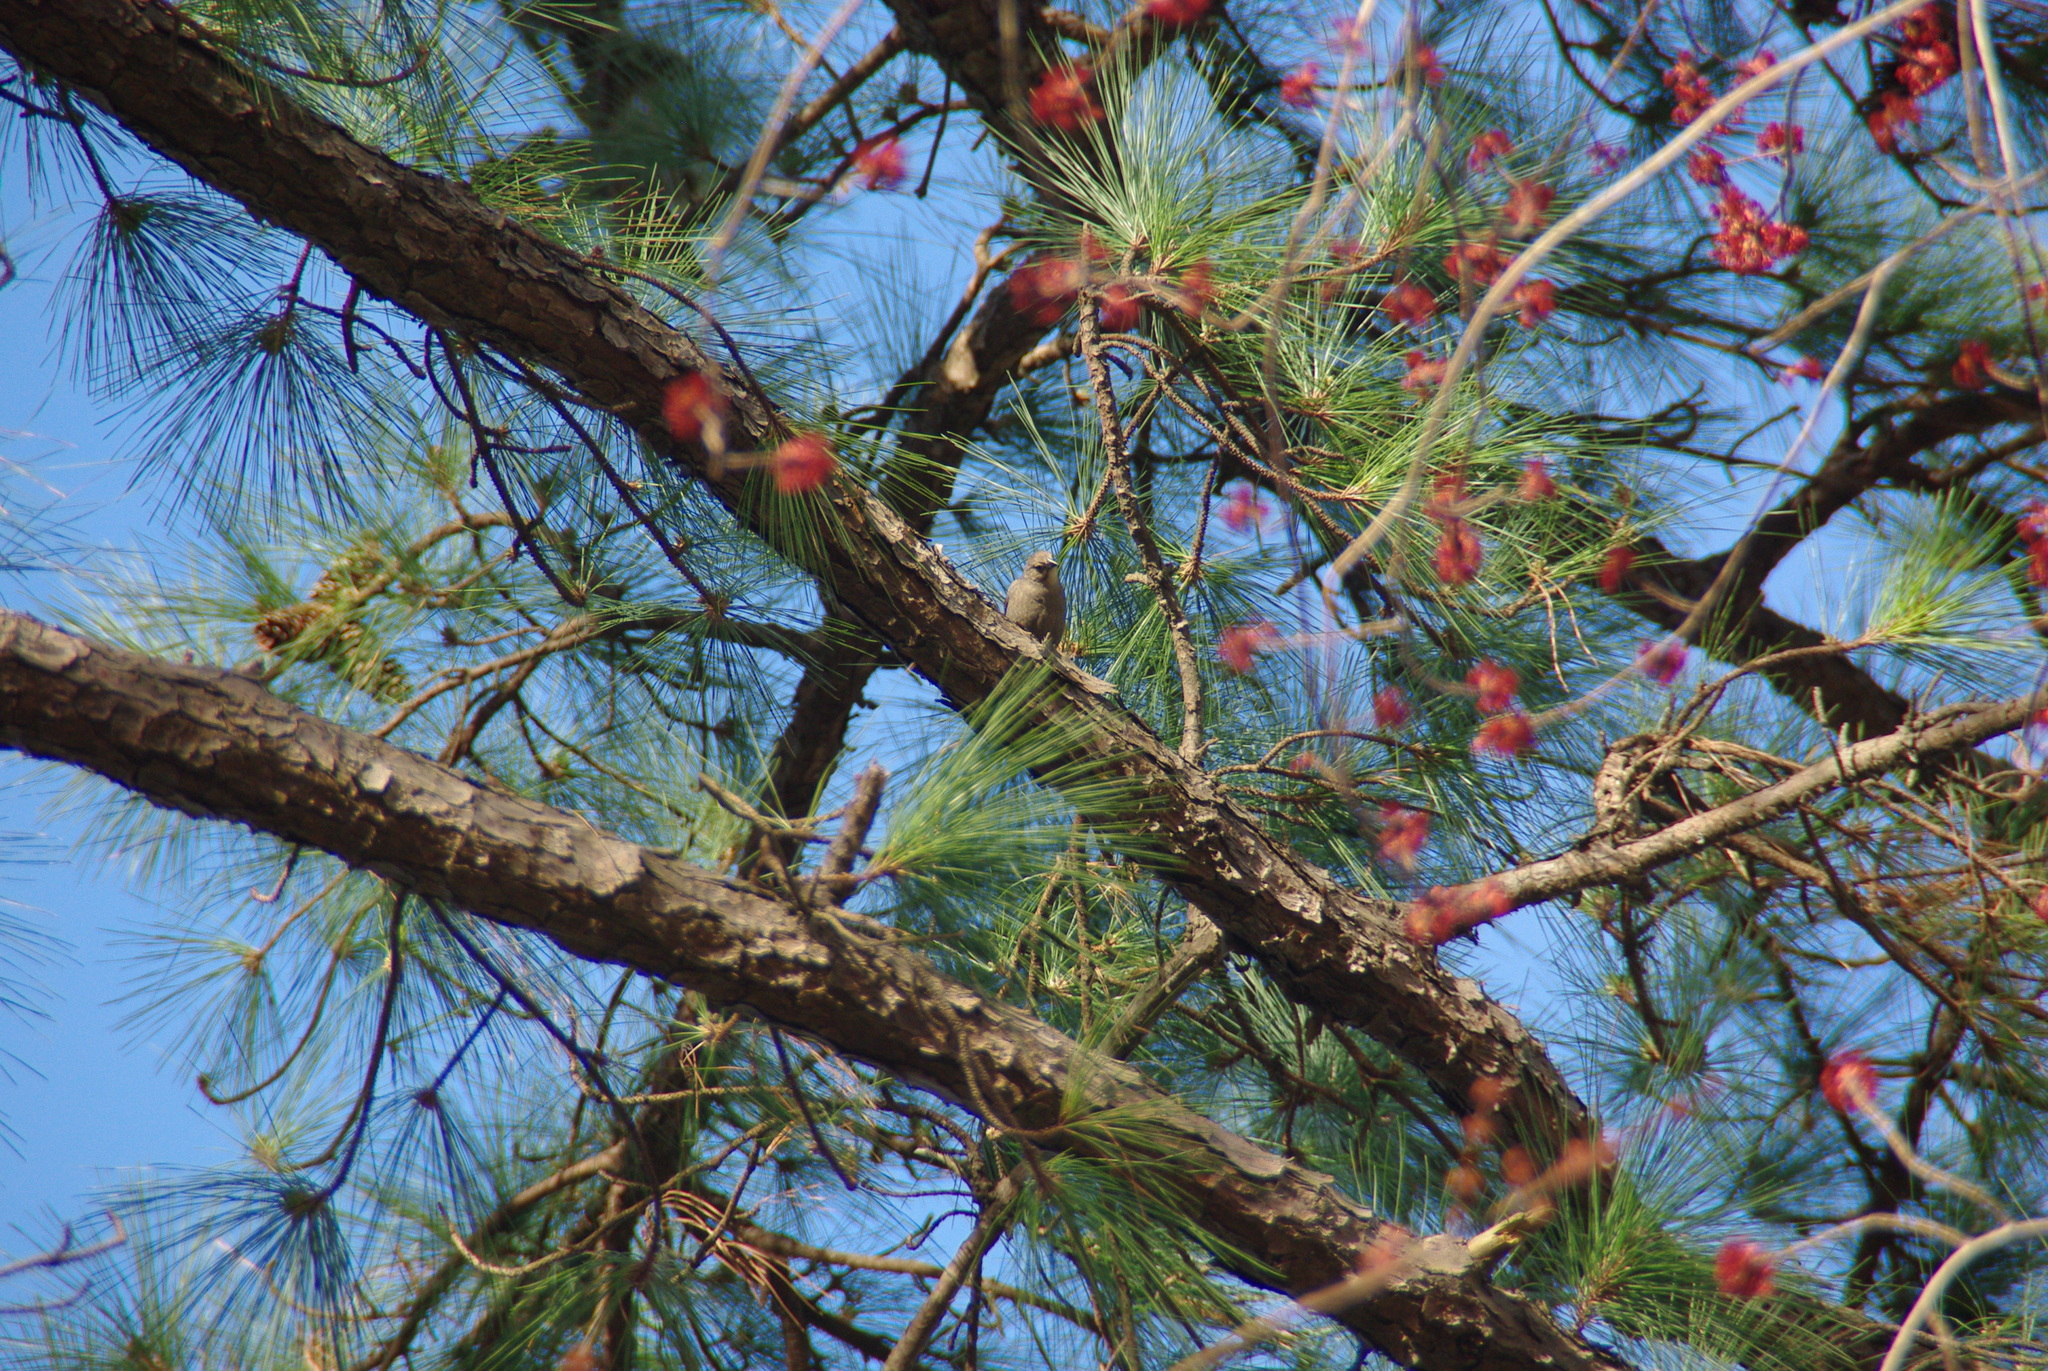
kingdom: Animalia
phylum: Chordata
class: Aves
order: Passeriformes
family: Icteridae
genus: Molothrus
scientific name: Molothrus ater
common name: Brown-headed cowbird
